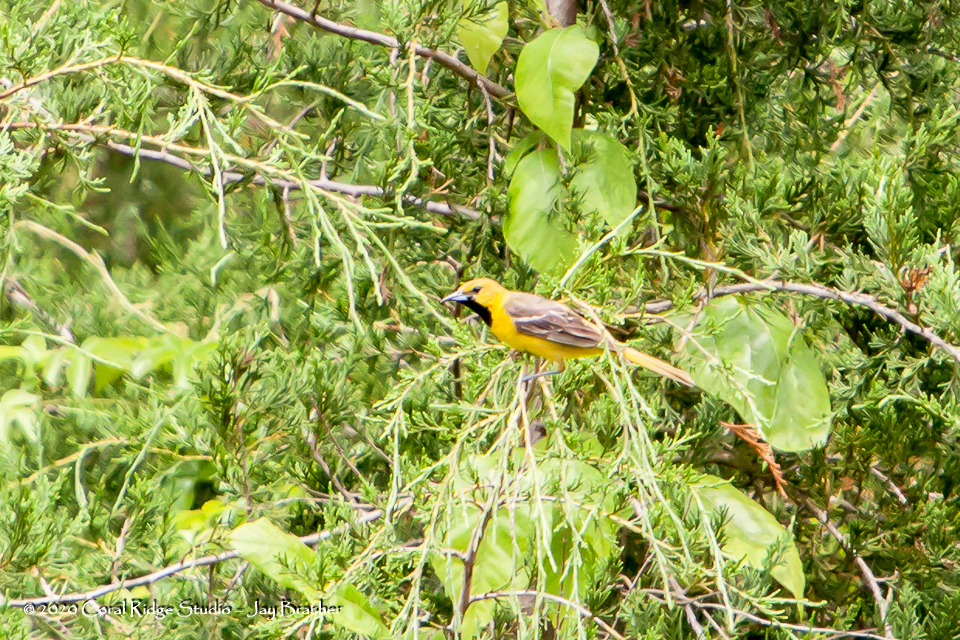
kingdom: Animalia
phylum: Chordata
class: Aves
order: Passeriformes
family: Icteridae
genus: Icterus
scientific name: Icterus spurius
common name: Orchard oriole
